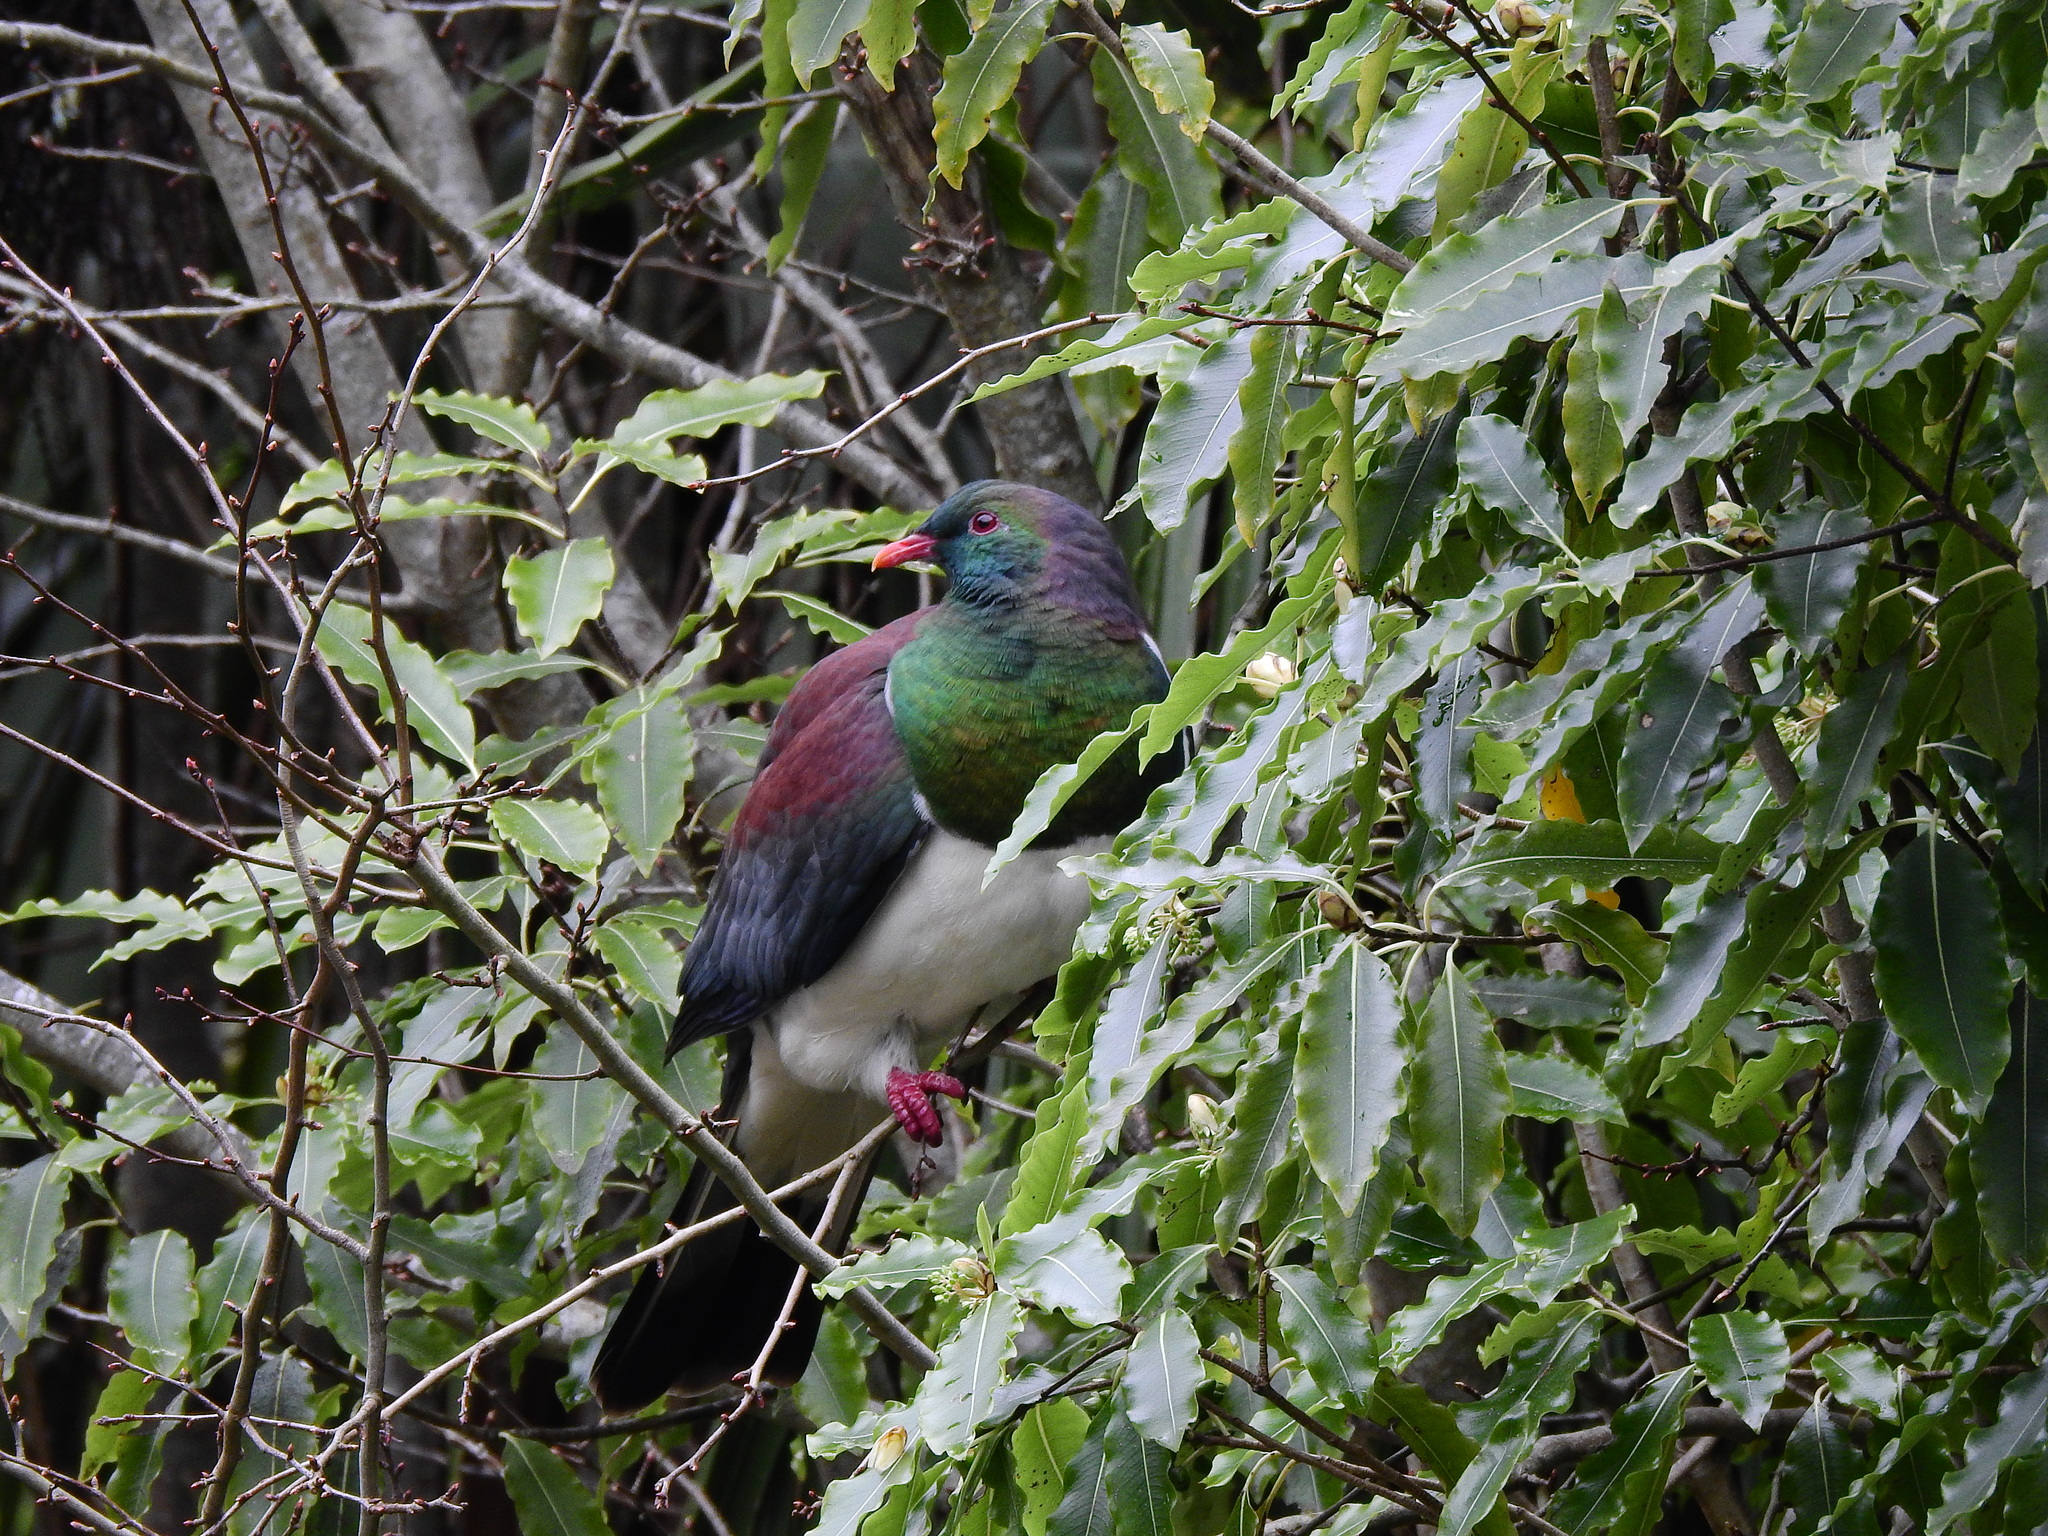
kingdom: Animalia
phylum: Chordata
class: Aves
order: Columbiformes
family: Columbidae
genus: Hemiphaga
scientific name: Hemiphaga novaeseelandiae
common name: New zealand pigeon
